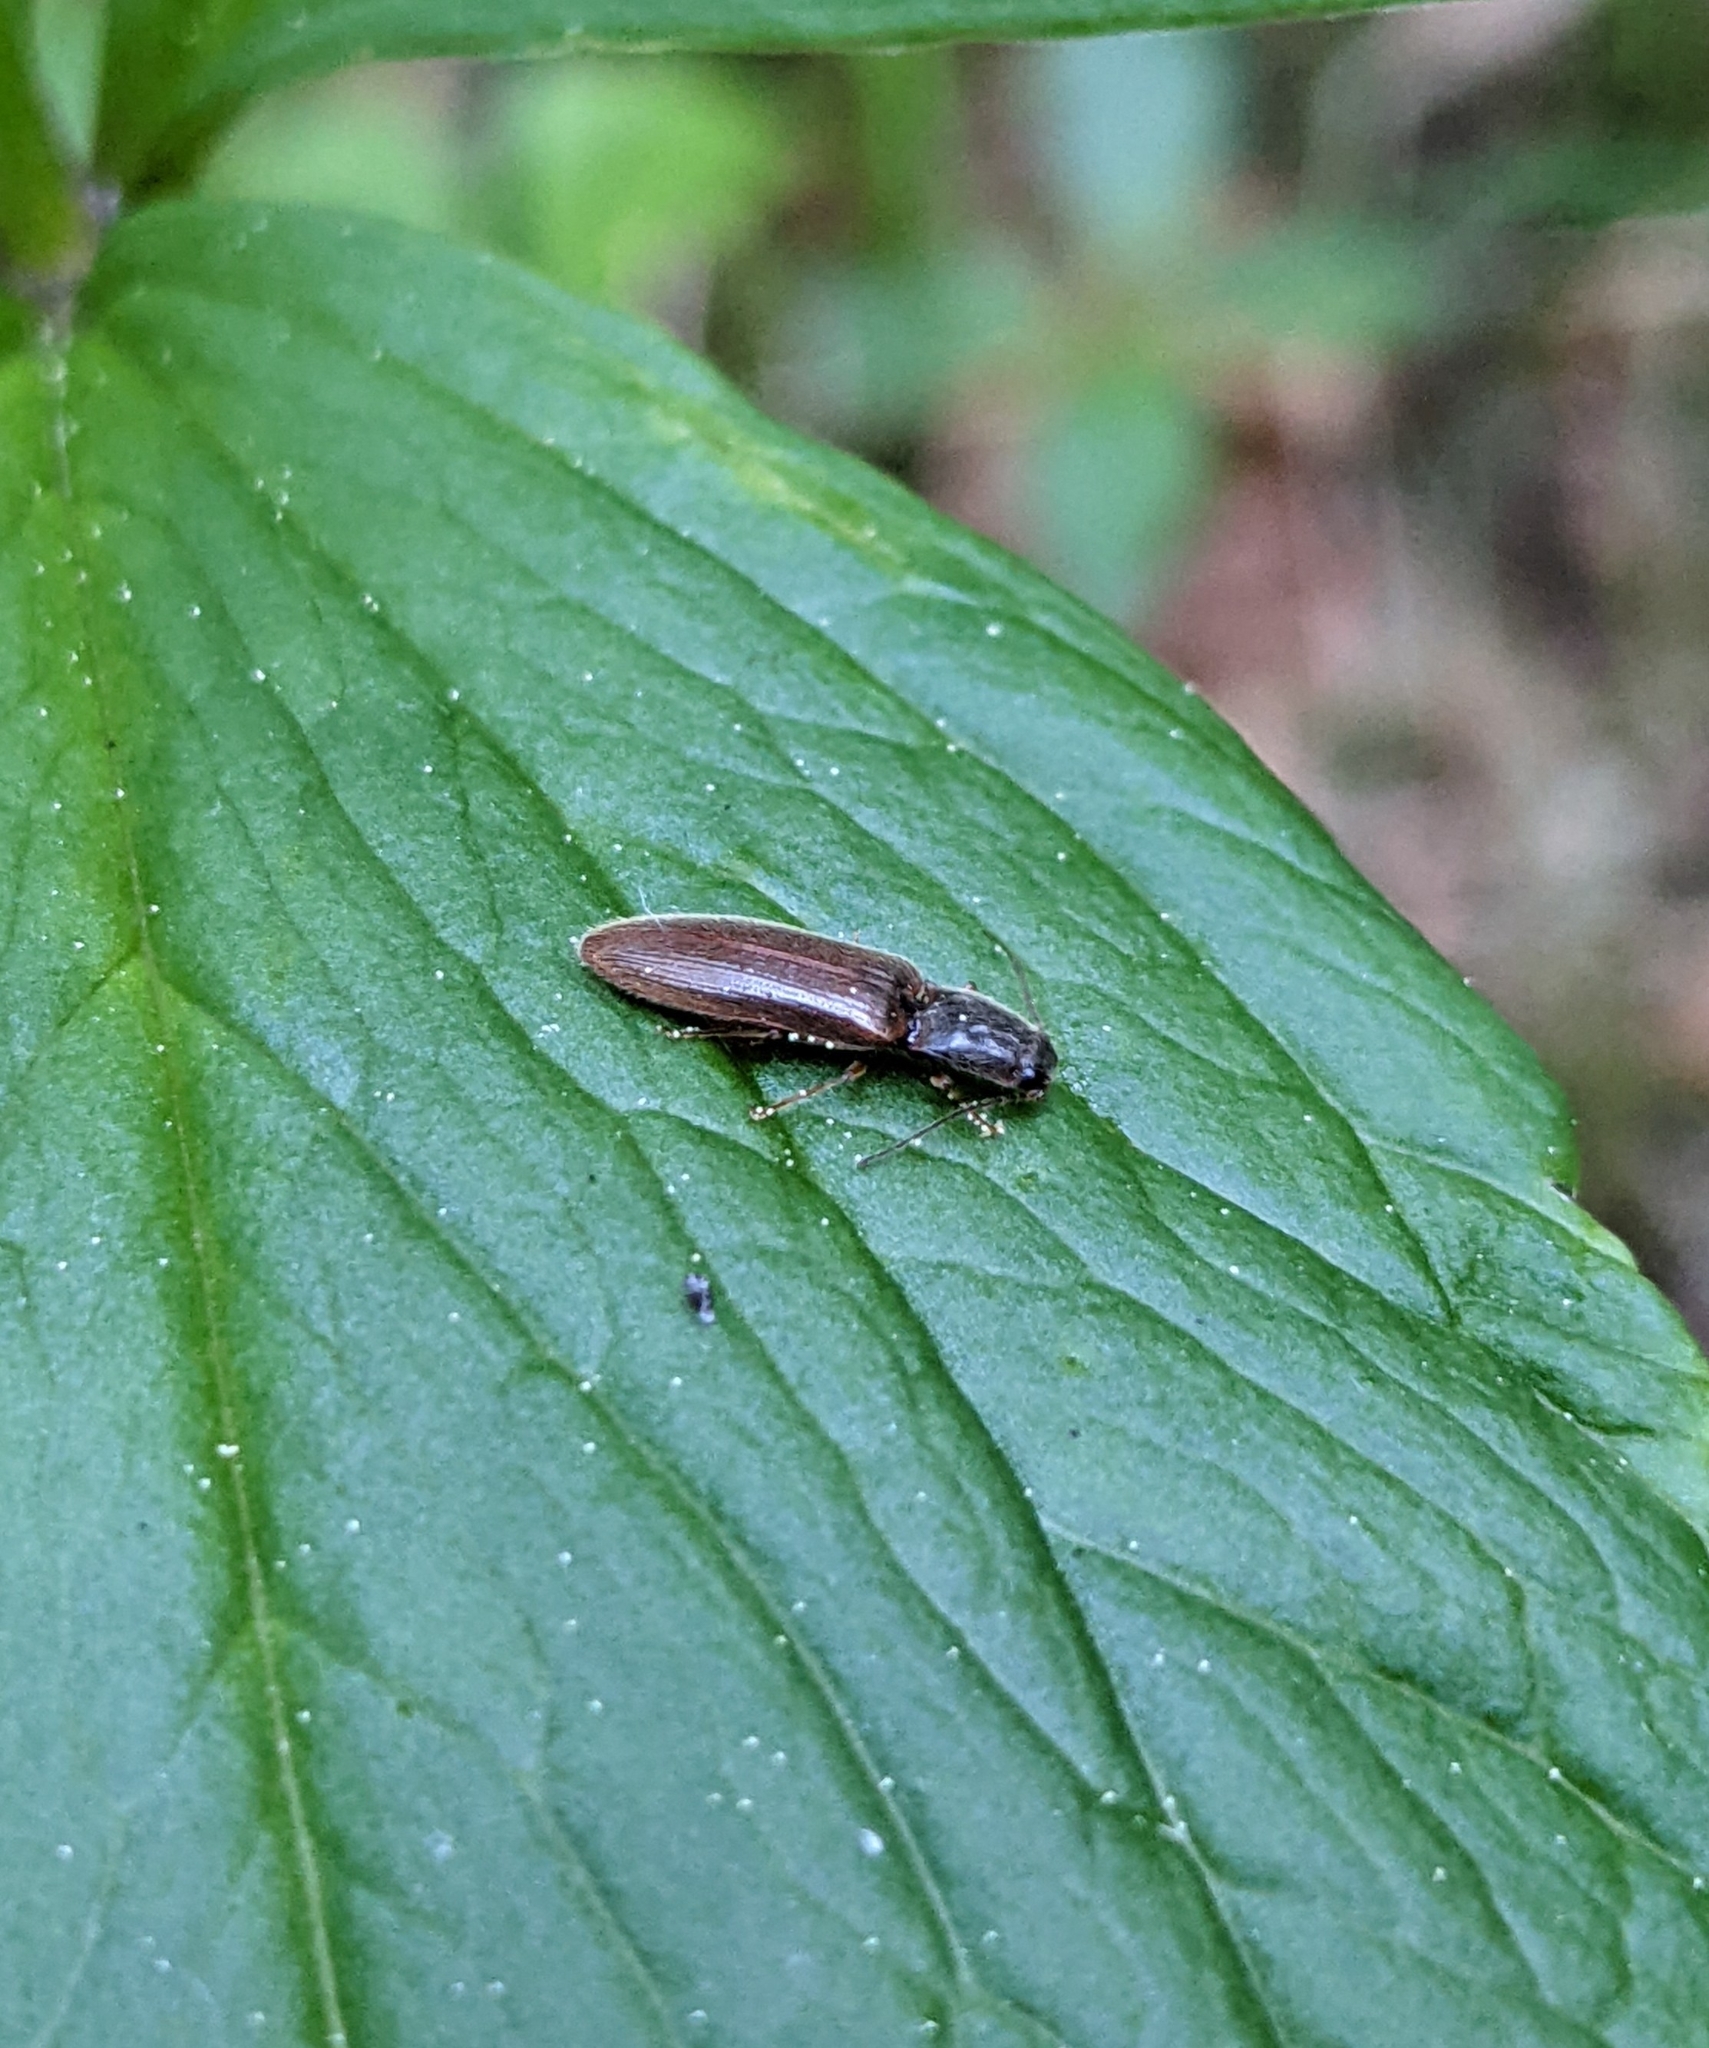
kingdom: Animalia
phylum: Arthropoda
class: Insecta
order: Coleoptera
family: Elateridae
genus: Athous
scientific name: Athous subfuscus
